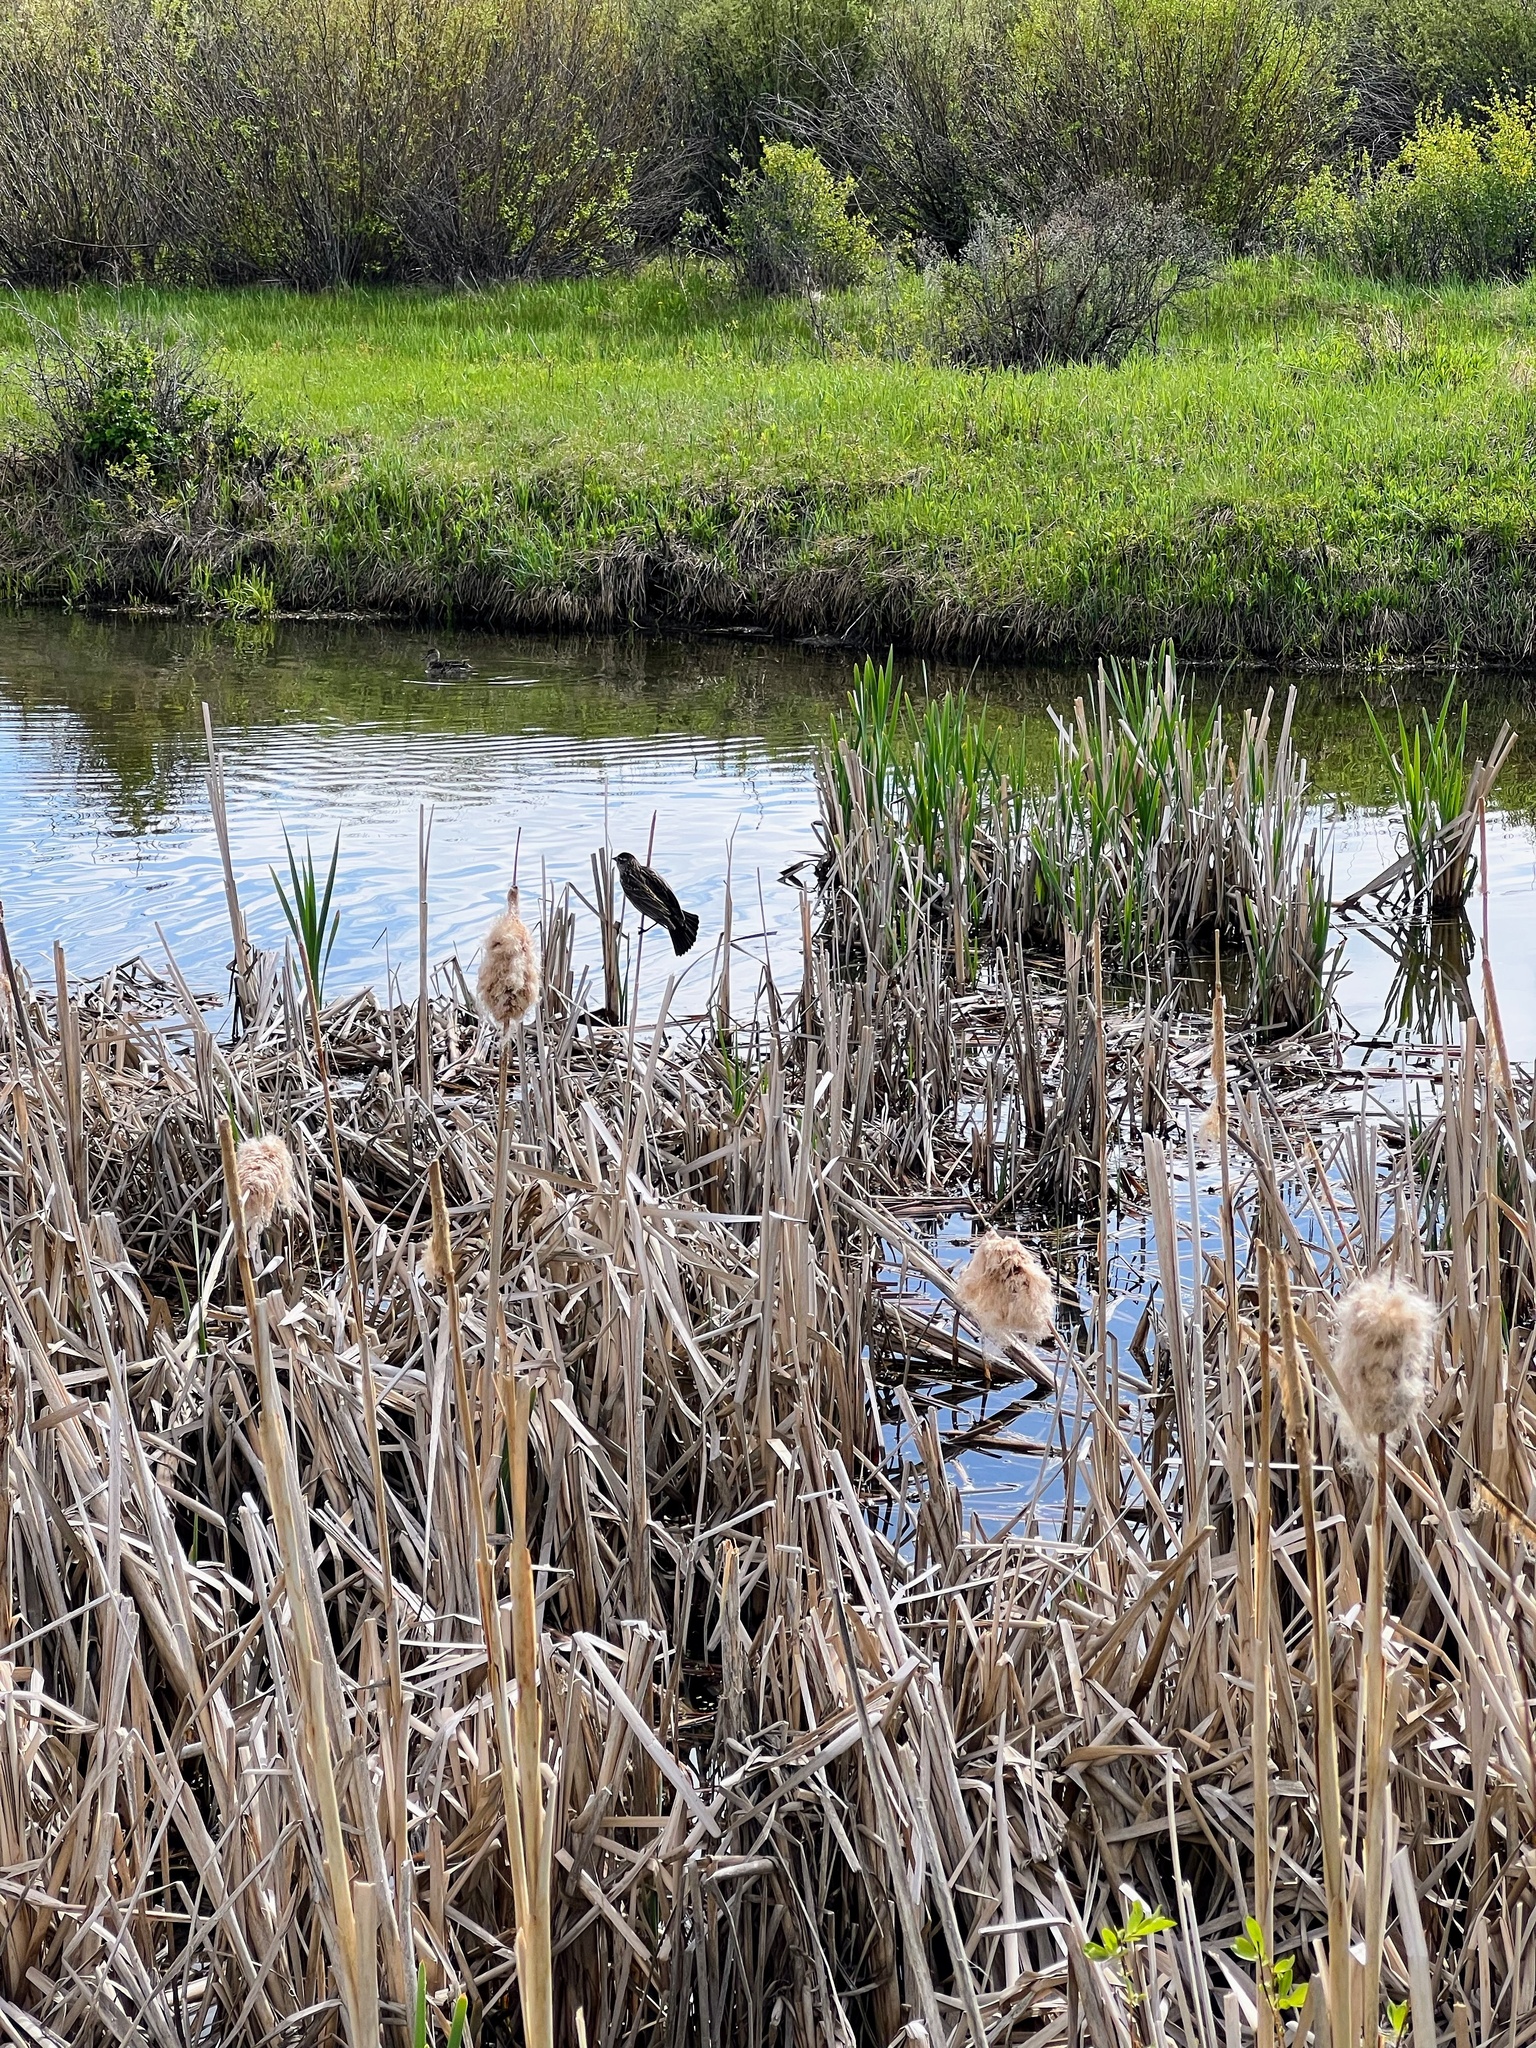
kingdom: Animalia
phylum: Chordata
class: Aves
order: Passeriformes
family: Icteridae
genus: Agelaius
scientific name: Agelaius phoeniceus
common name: Red-winged blackbird
